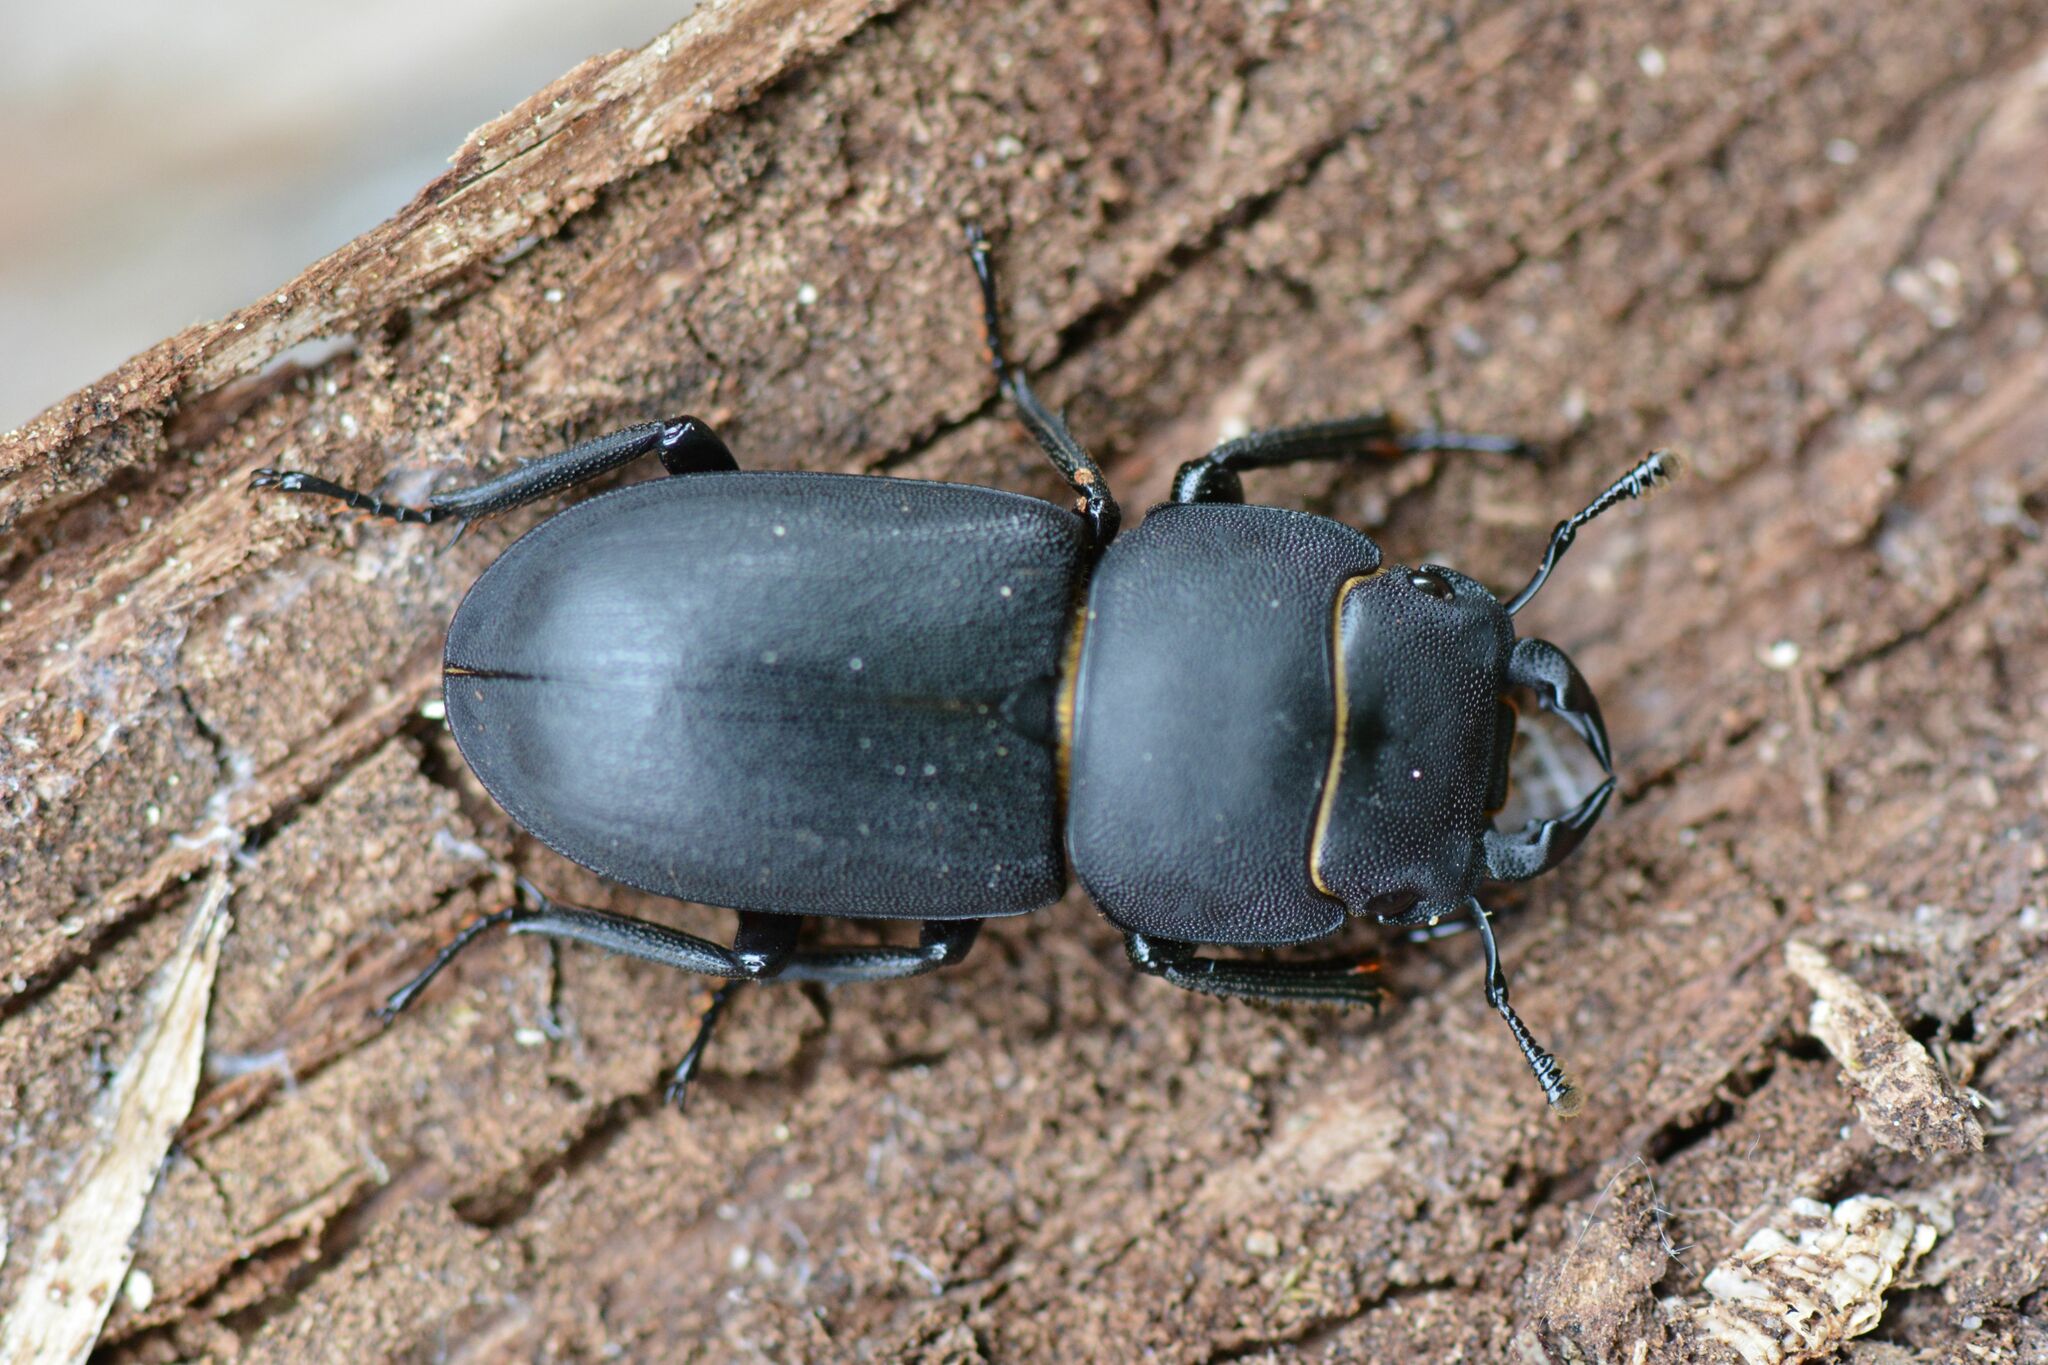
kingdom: Animalia
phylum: Arthropoda
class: Insecta
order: Coleoptera
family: Lucanidae
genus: Dorcus
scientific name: Dorcus parallelipipedus
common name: Lesser stag beetle
